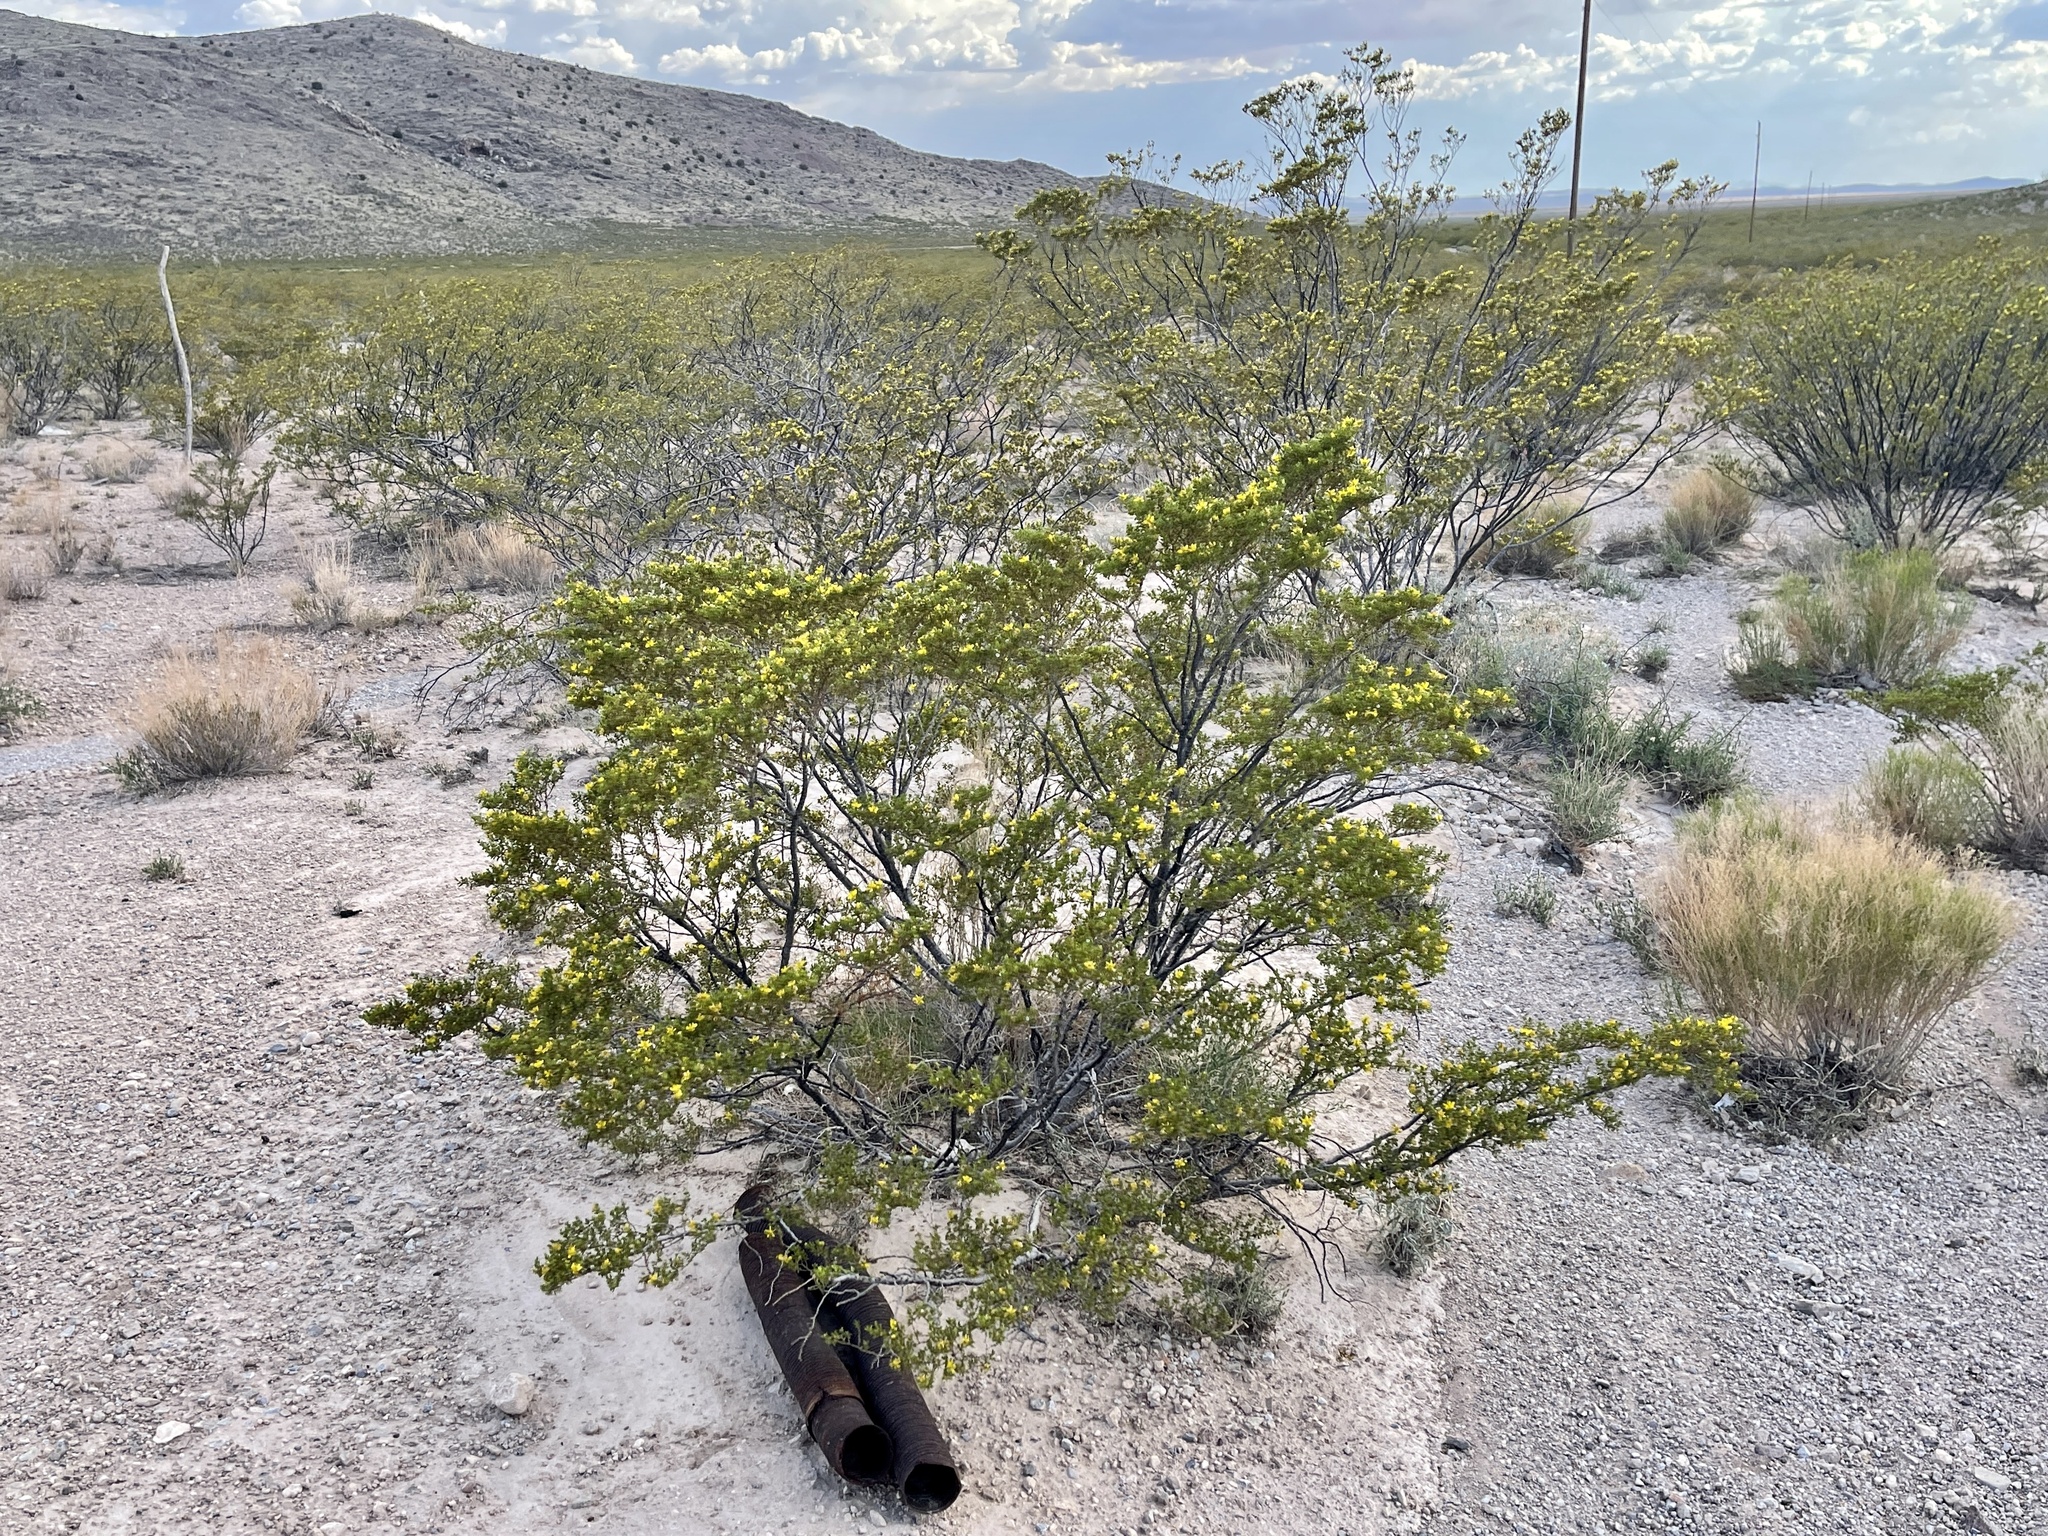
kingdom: Plantae
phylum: Tracheophyta
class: Magnoliopsida
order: Zygophyllales
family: Zygophyllaceae
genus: Larrea
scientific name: Larrea tridentata
